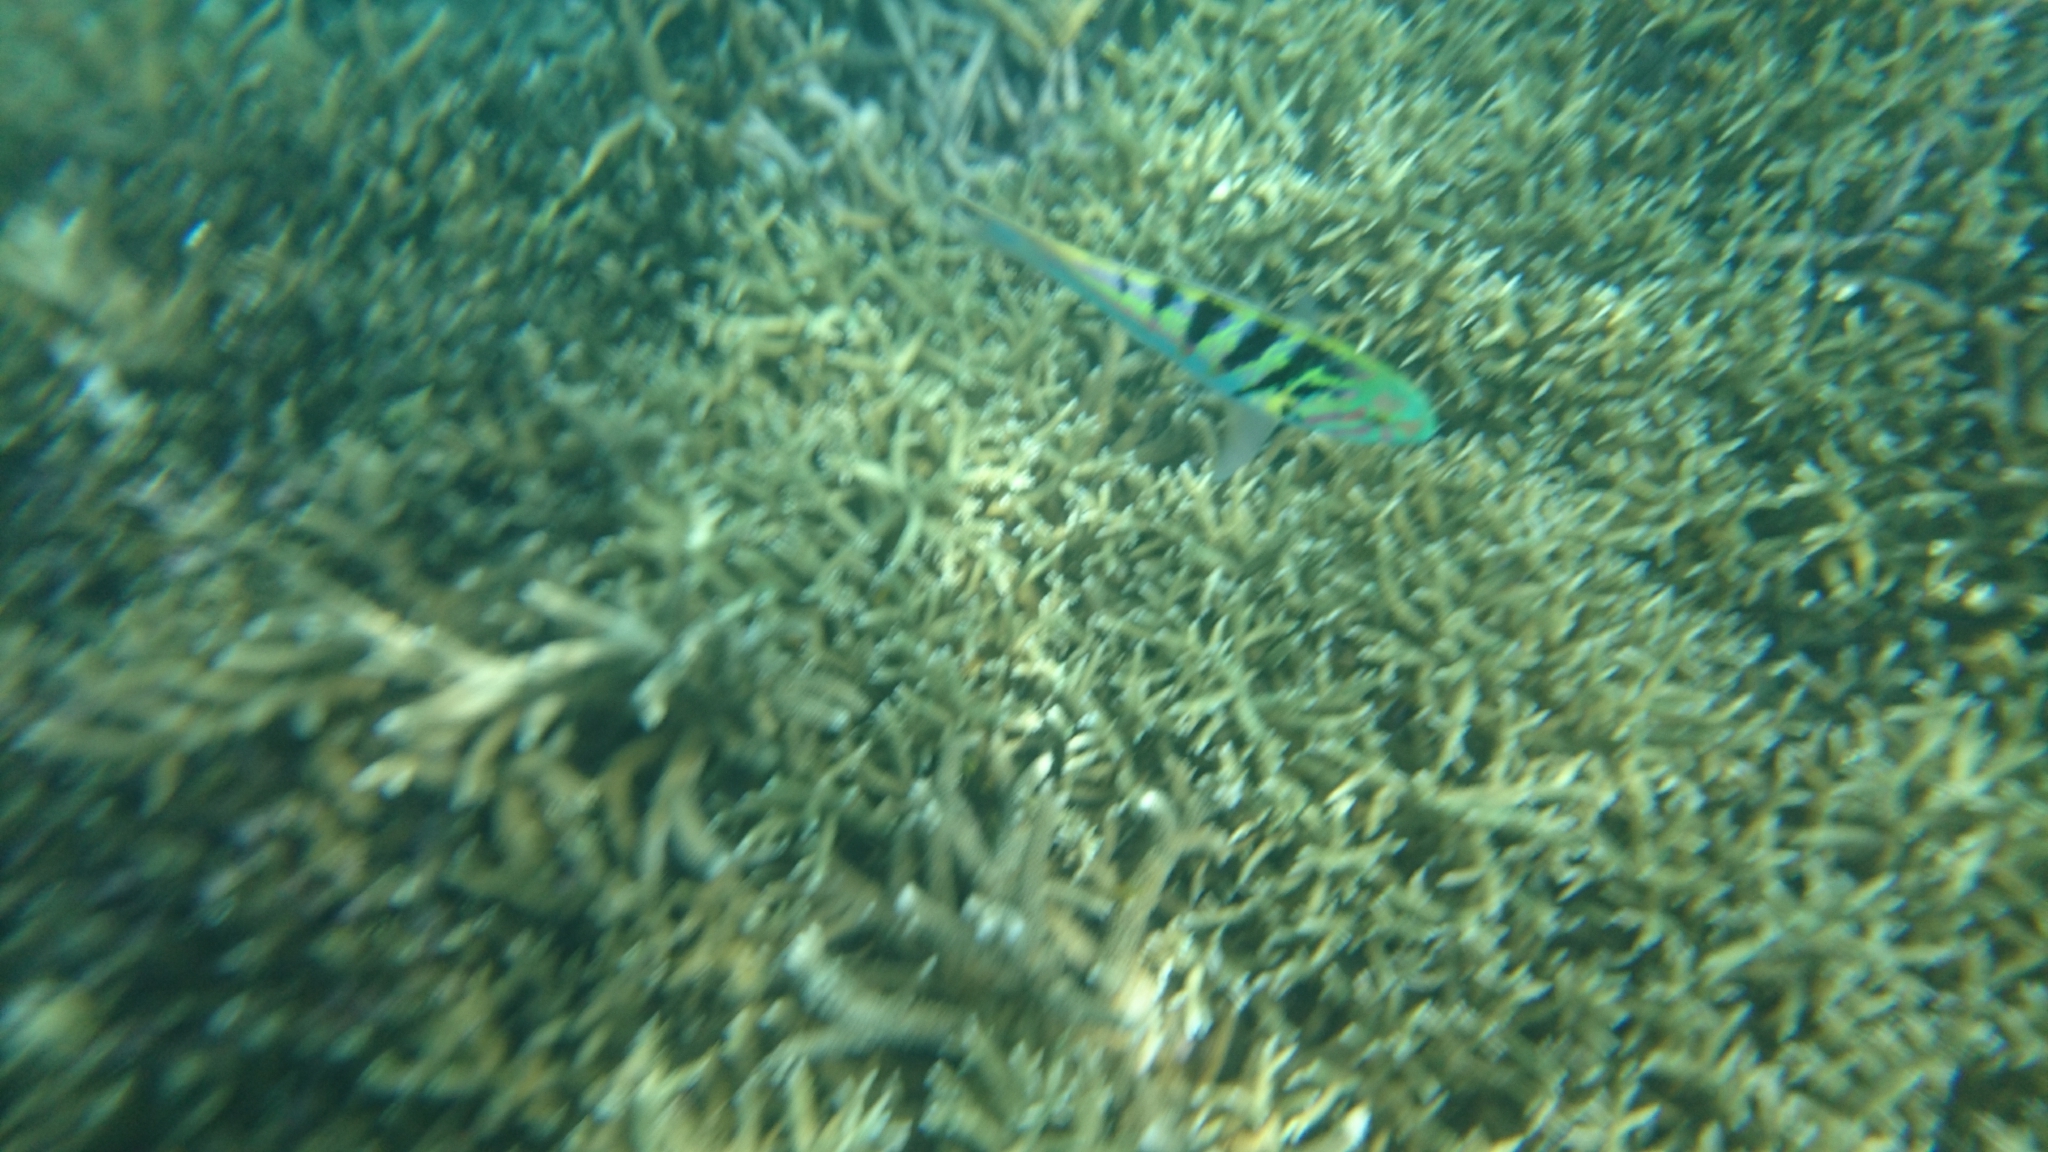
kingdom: Animalia
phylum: Chordata
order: Perciformes
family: Labridae
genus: Thalassoma
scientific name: Thalassoma hardwicke
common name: Sixbar wrasse
